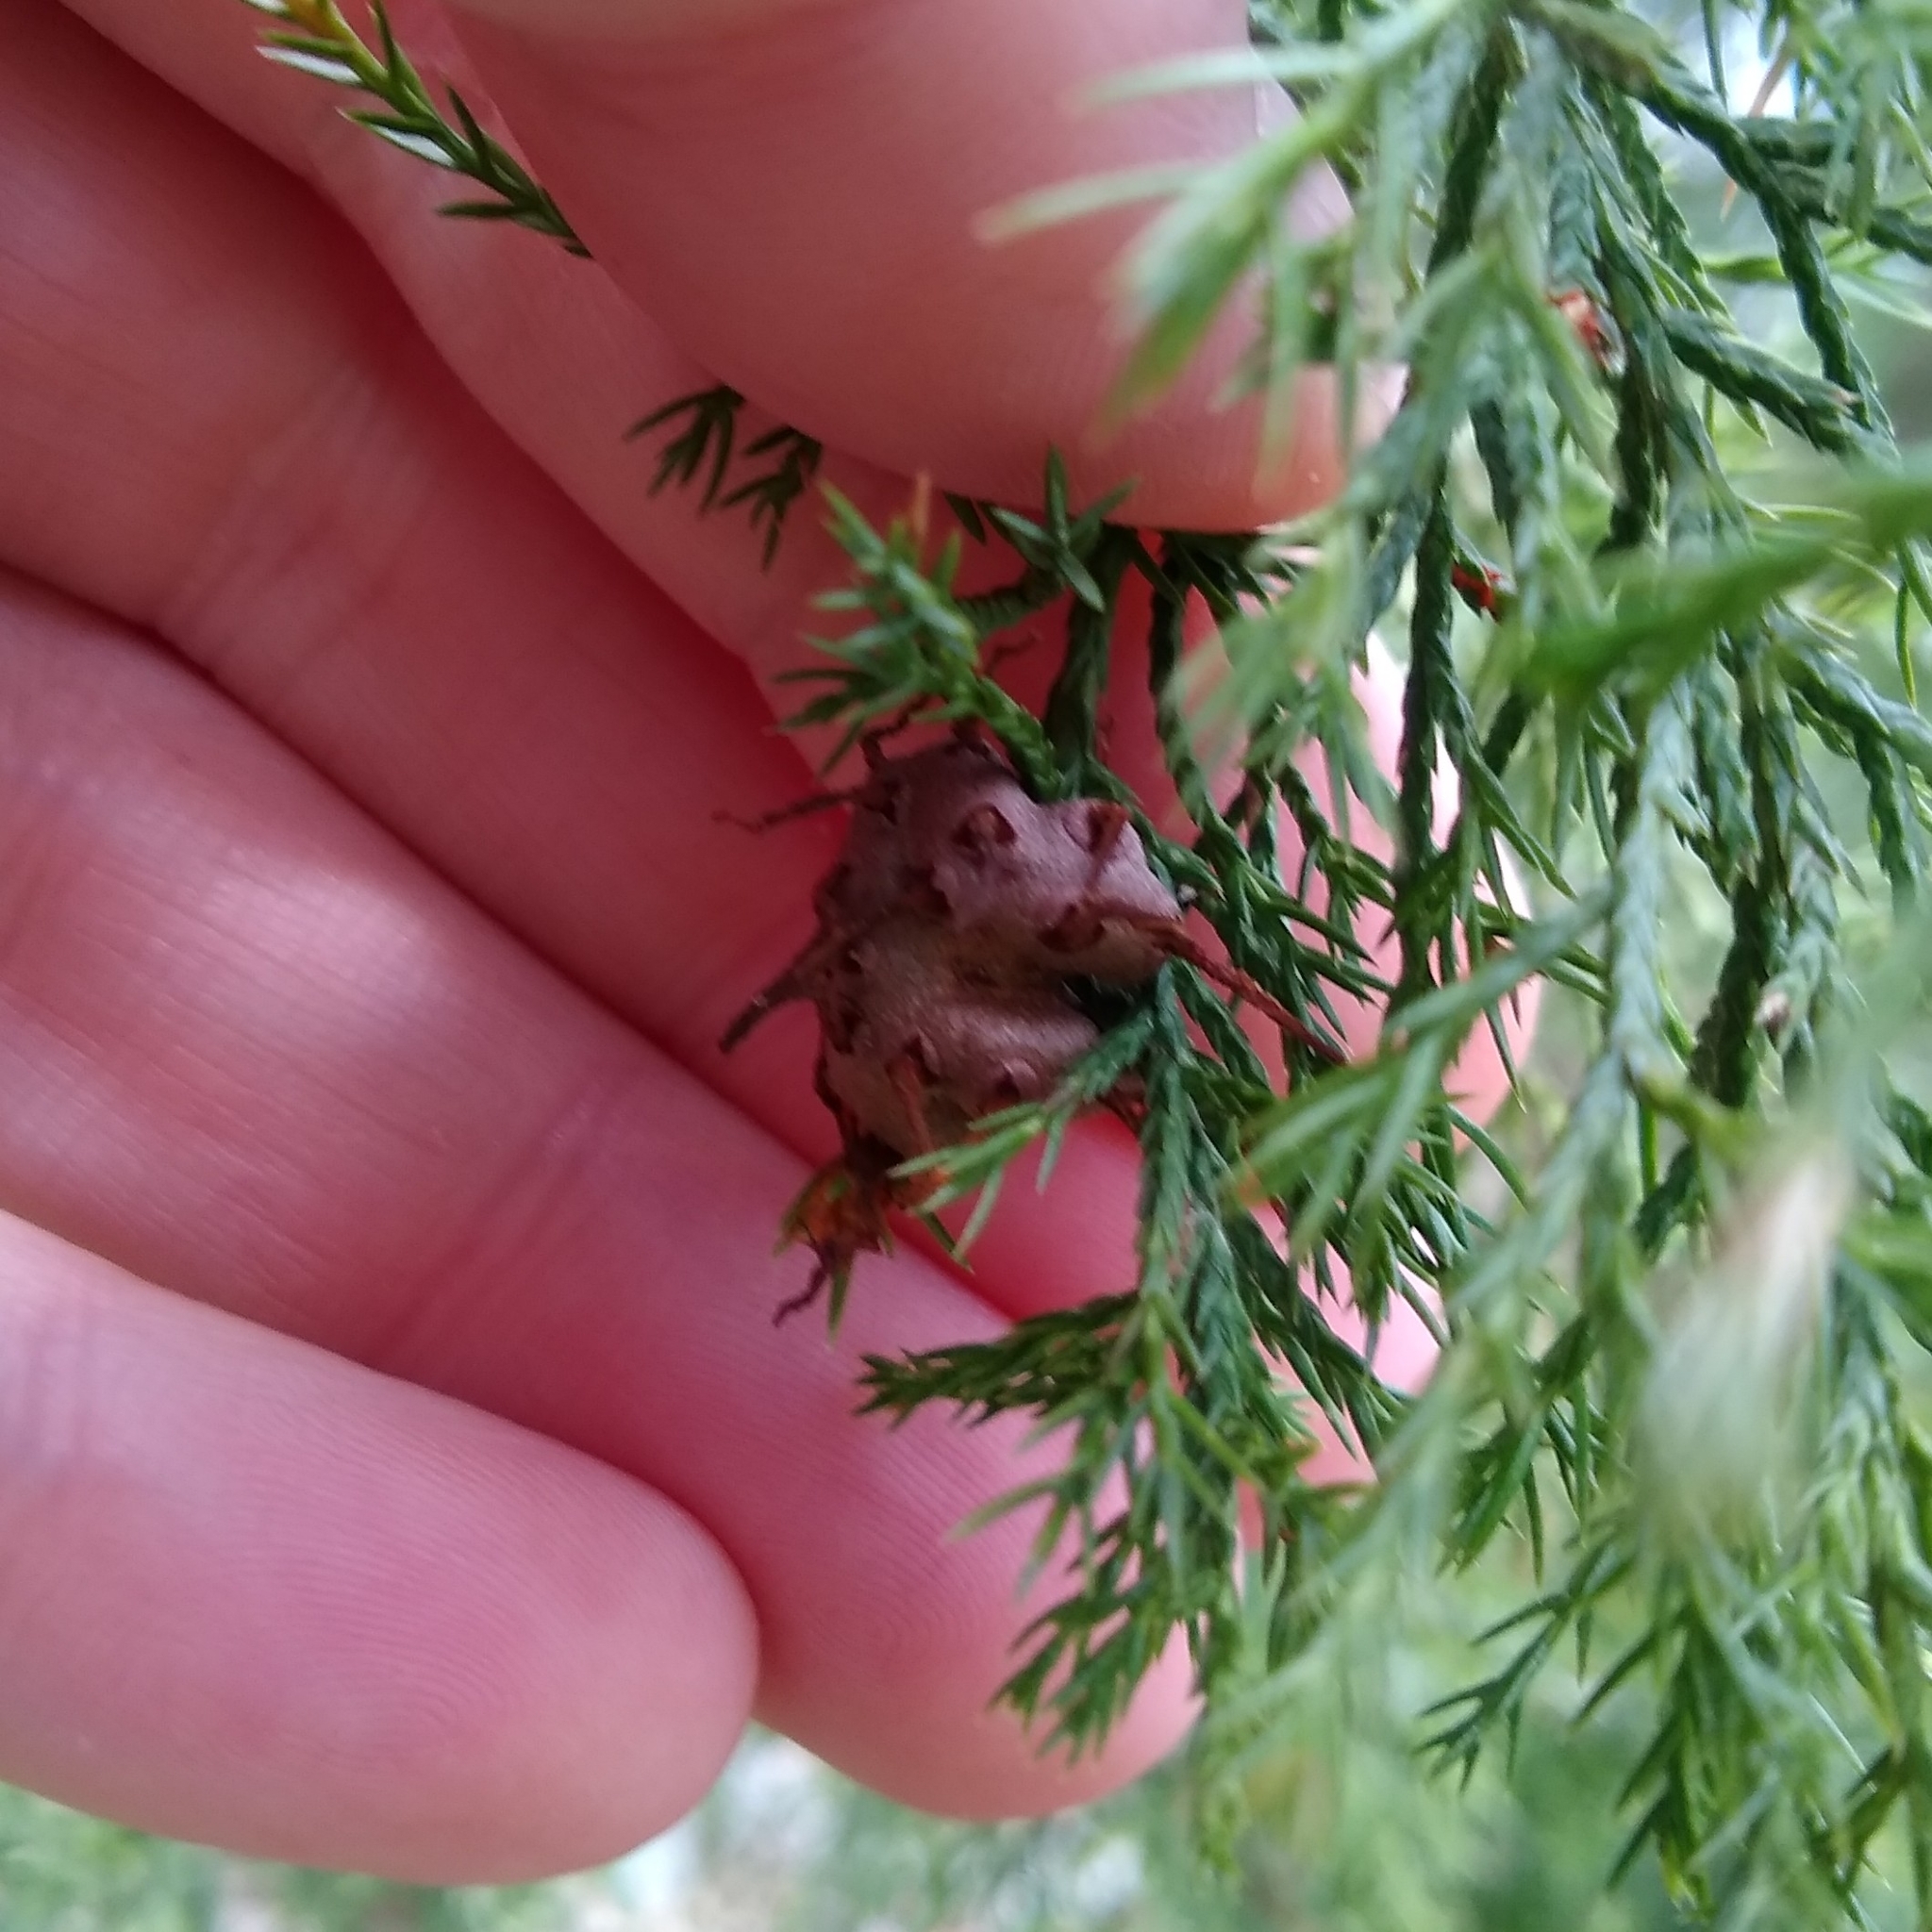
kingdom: Fungi
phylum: Basidiomycota
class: Pucciniomycetes
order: Pucciniales
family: Gymnosporangiaceae
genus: Gymnosporangium
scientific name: Gymnosporangium juniperi-virginianae
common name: Juniper-apple rust
